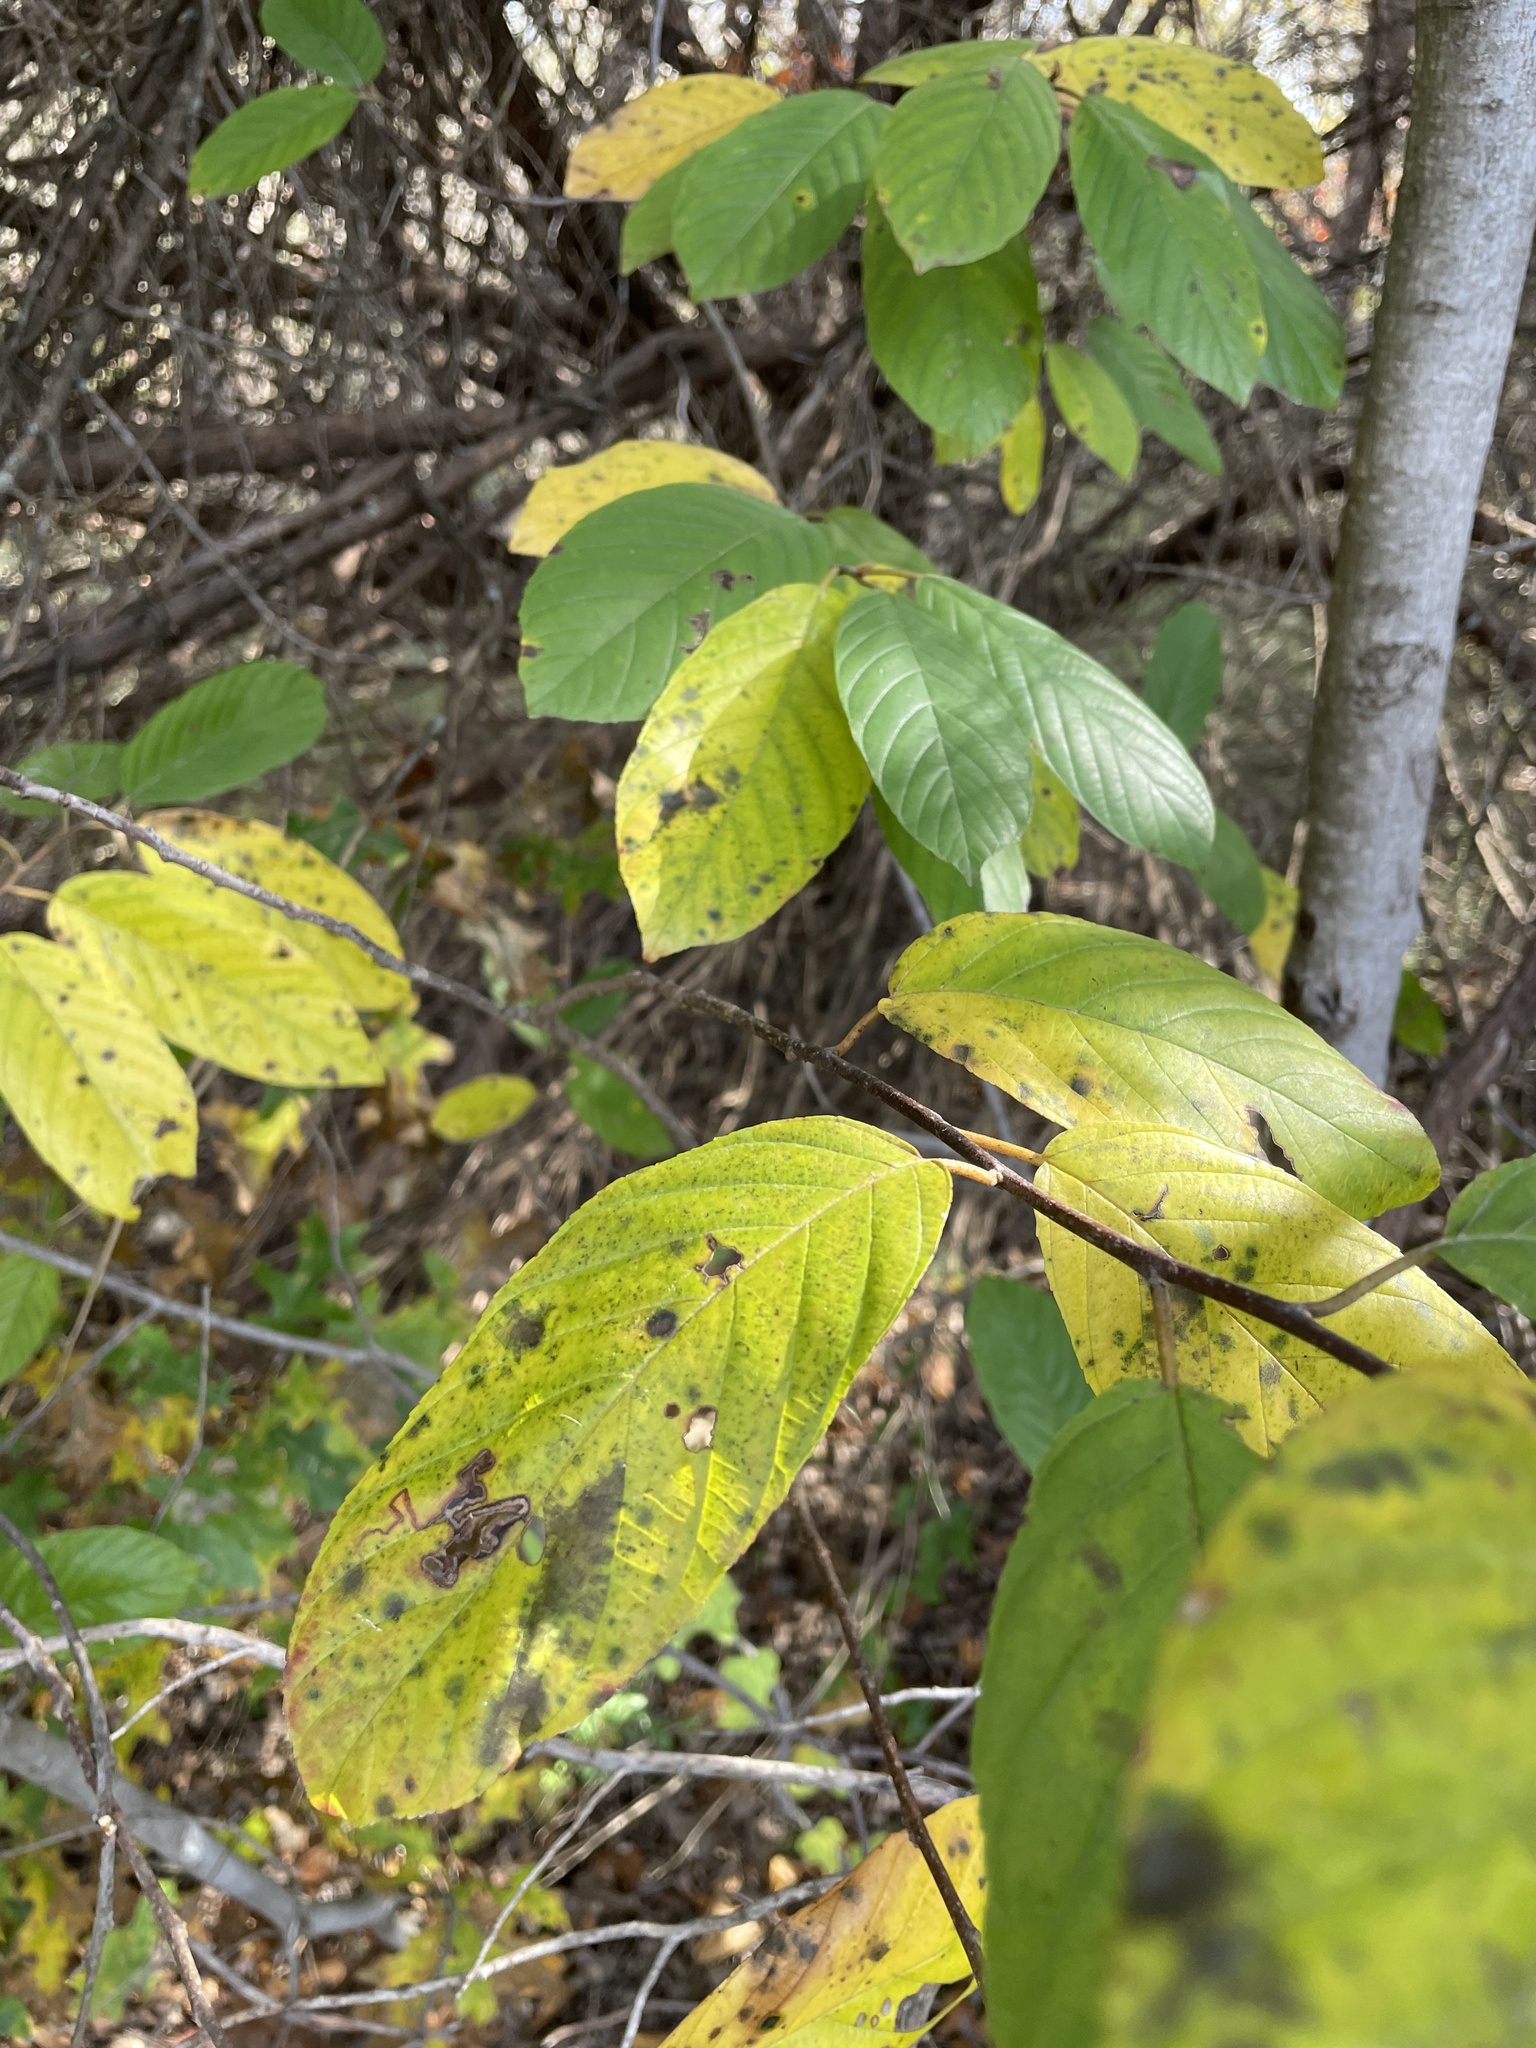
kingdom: Plantae
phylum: Tracheophyta
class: Magnoliopsida
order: Rosales
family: Rhamnaceae
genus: Frangula
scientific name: Frangula caroliniana
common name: Carolina buckthorn
